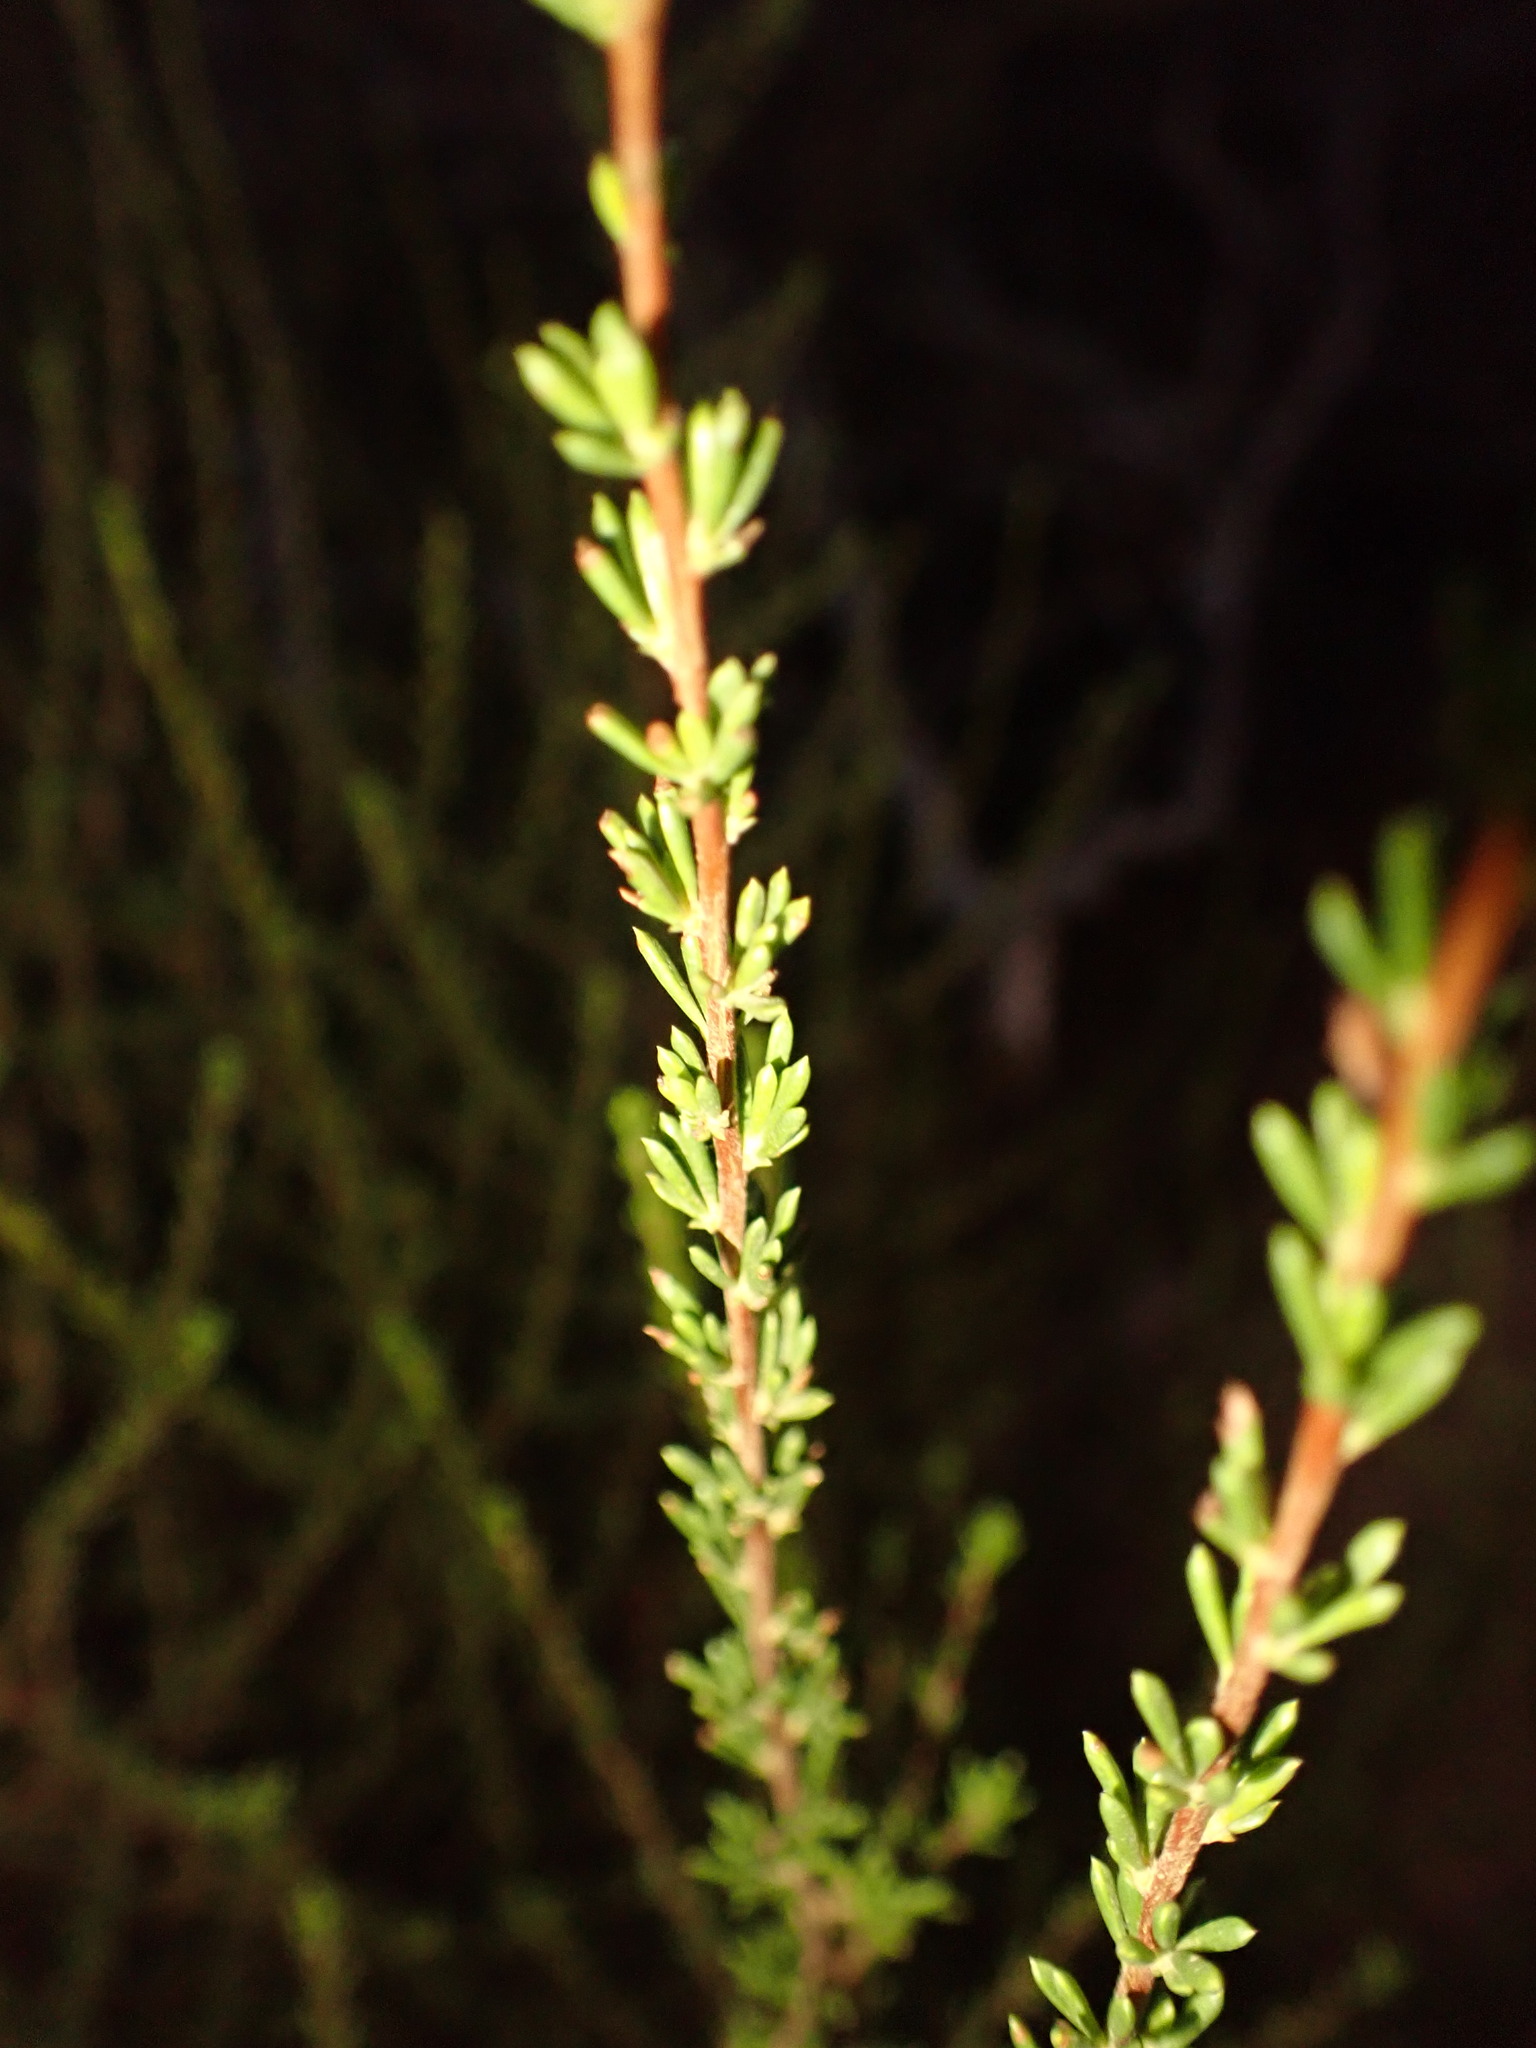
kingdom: Plantae
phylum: Tracheophyta
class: Magnoliopsida
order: Rosales
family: Rosaceae
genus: Adenostoma
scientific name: Adenostoma fasciculatum
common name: Chamise
